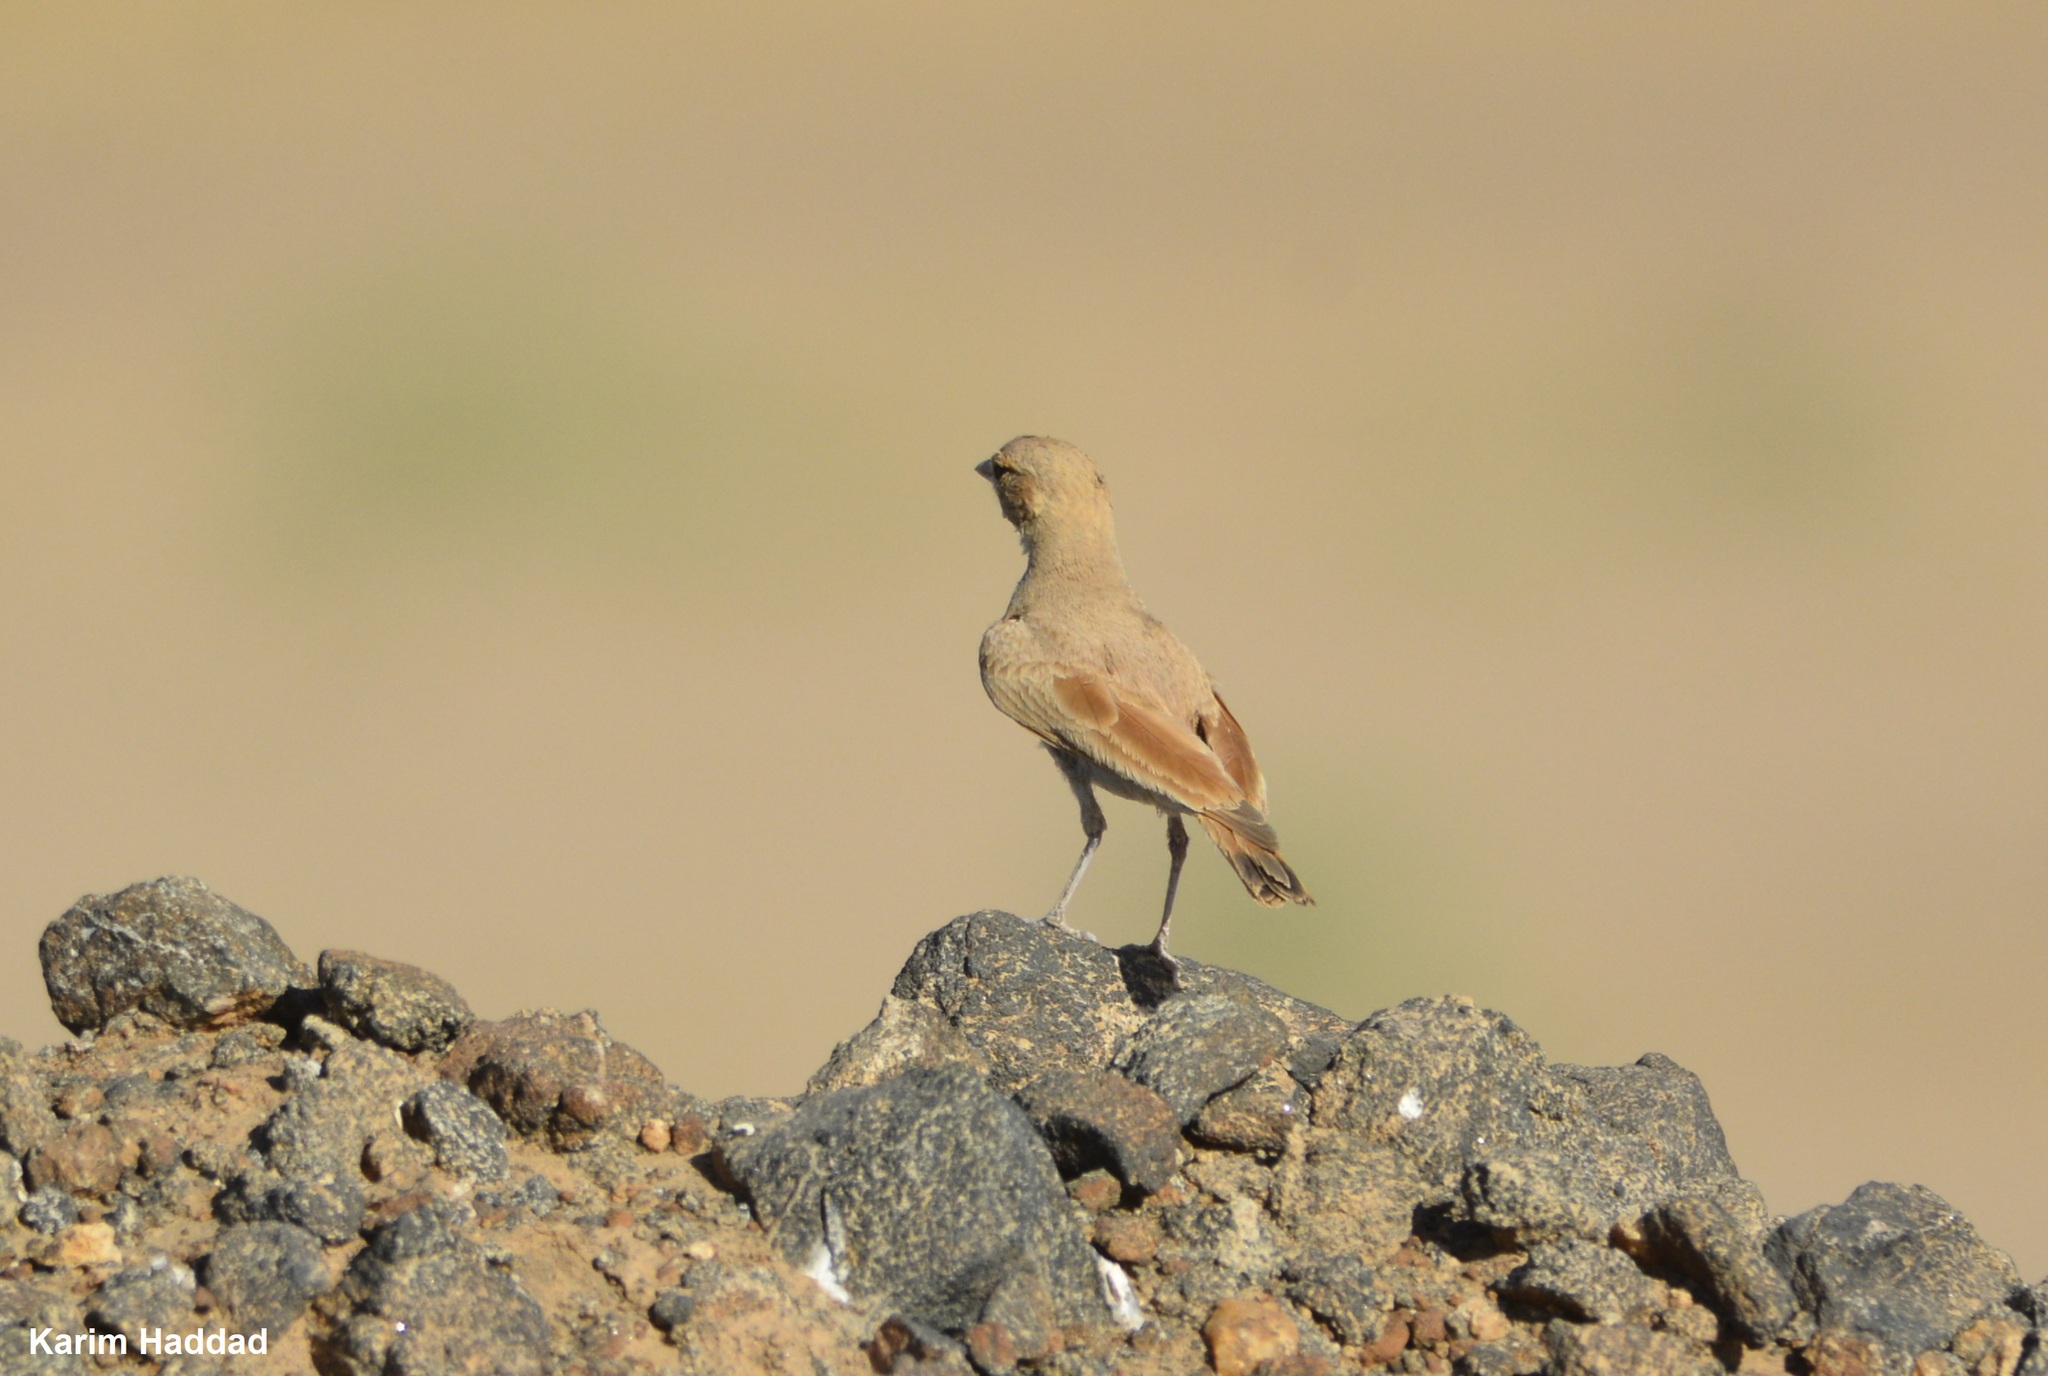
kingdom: Animalia
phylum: Chordata
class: Aves
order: Passeriformes
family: Alaudidae
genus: Eremalauda
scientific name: Eremalauda dunni
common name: Dunn's lark
